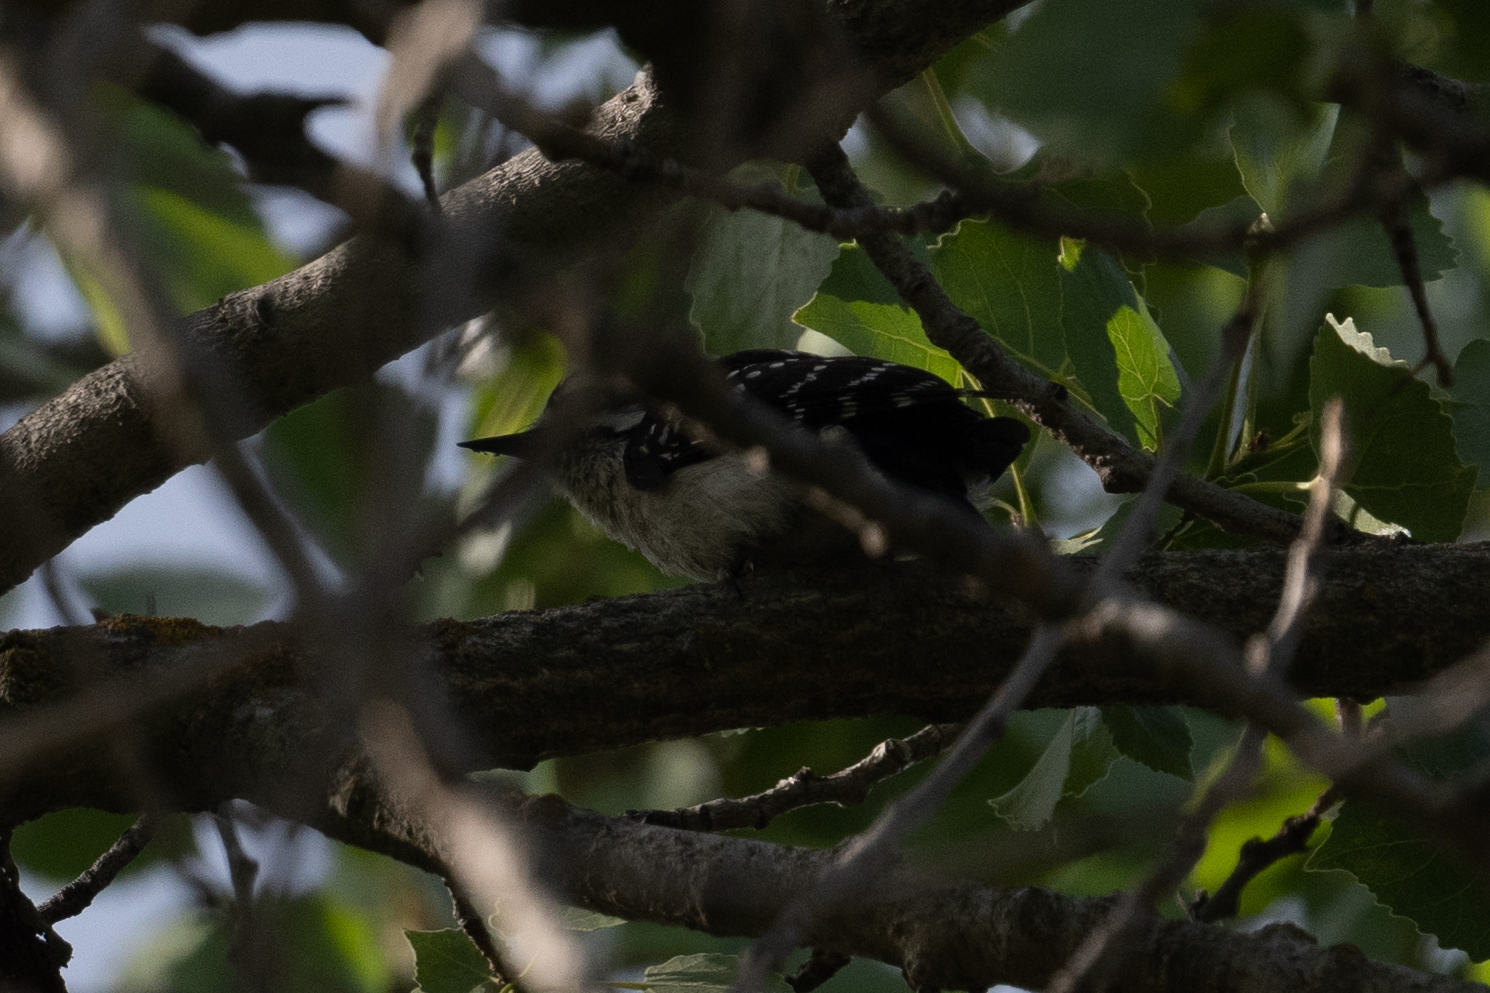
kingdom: Animalia
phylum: Chordata
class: Aves
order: Piciformes
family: Picidae
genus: Dryobates
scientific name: Dryobates pubescens
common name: Downy woodpecker
